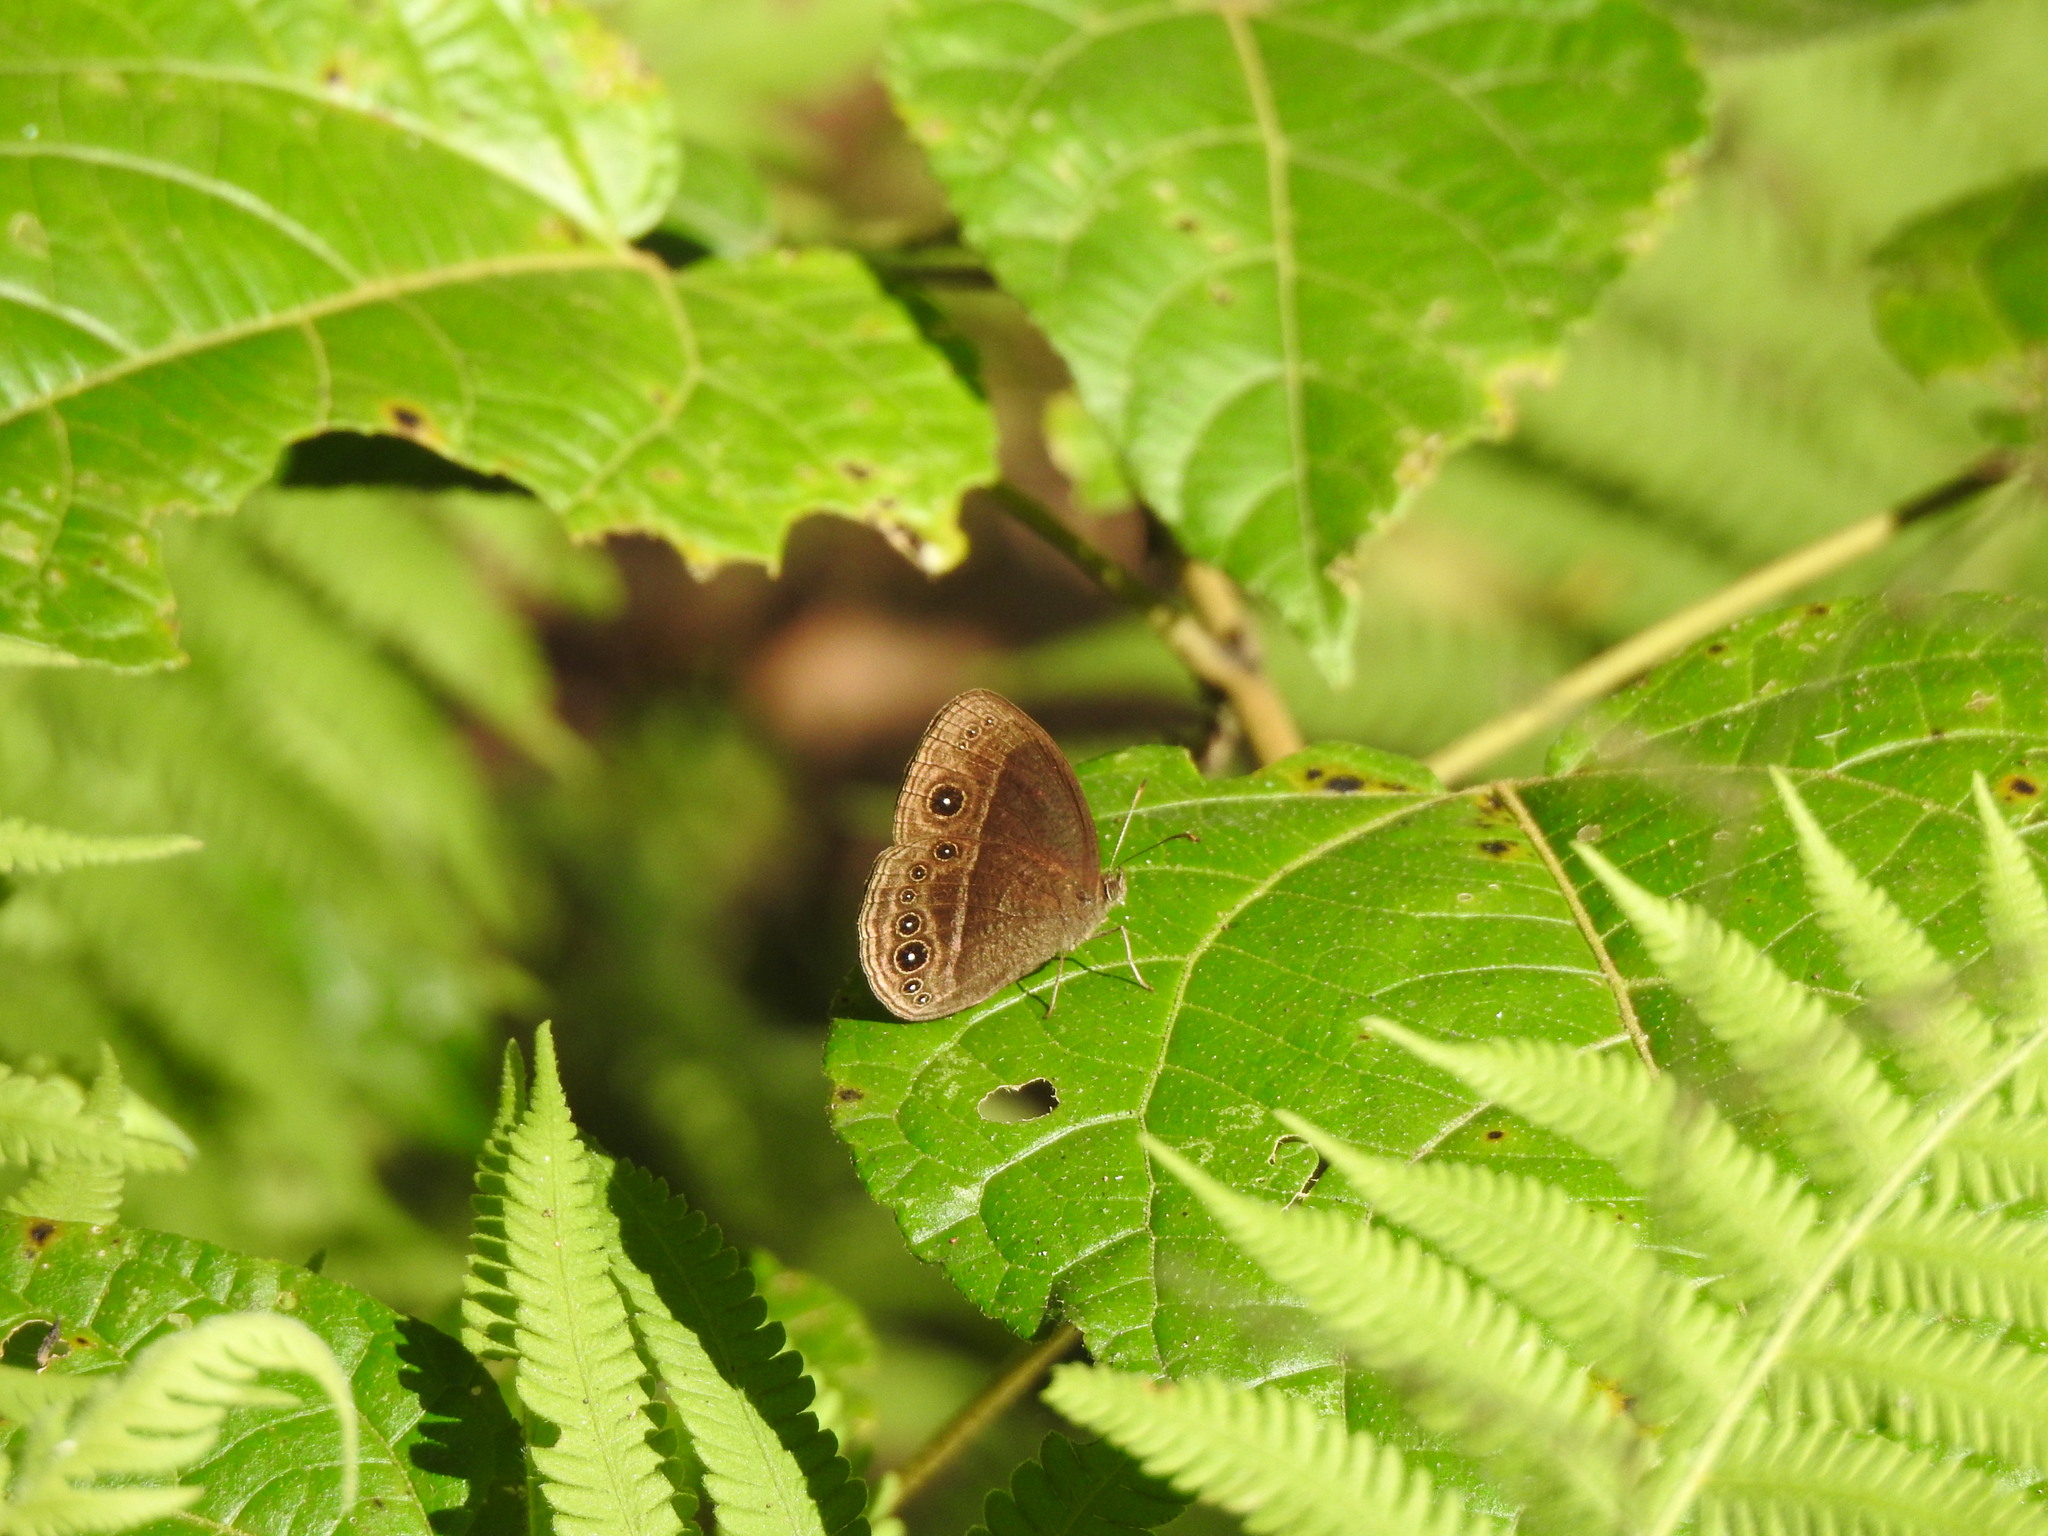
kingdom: Animalia
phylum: Arthropoda
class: Insecta
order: Lepidoptera
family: Nymphalidae
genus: Mycalesis
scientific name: Mycalesis Telinga malsara
